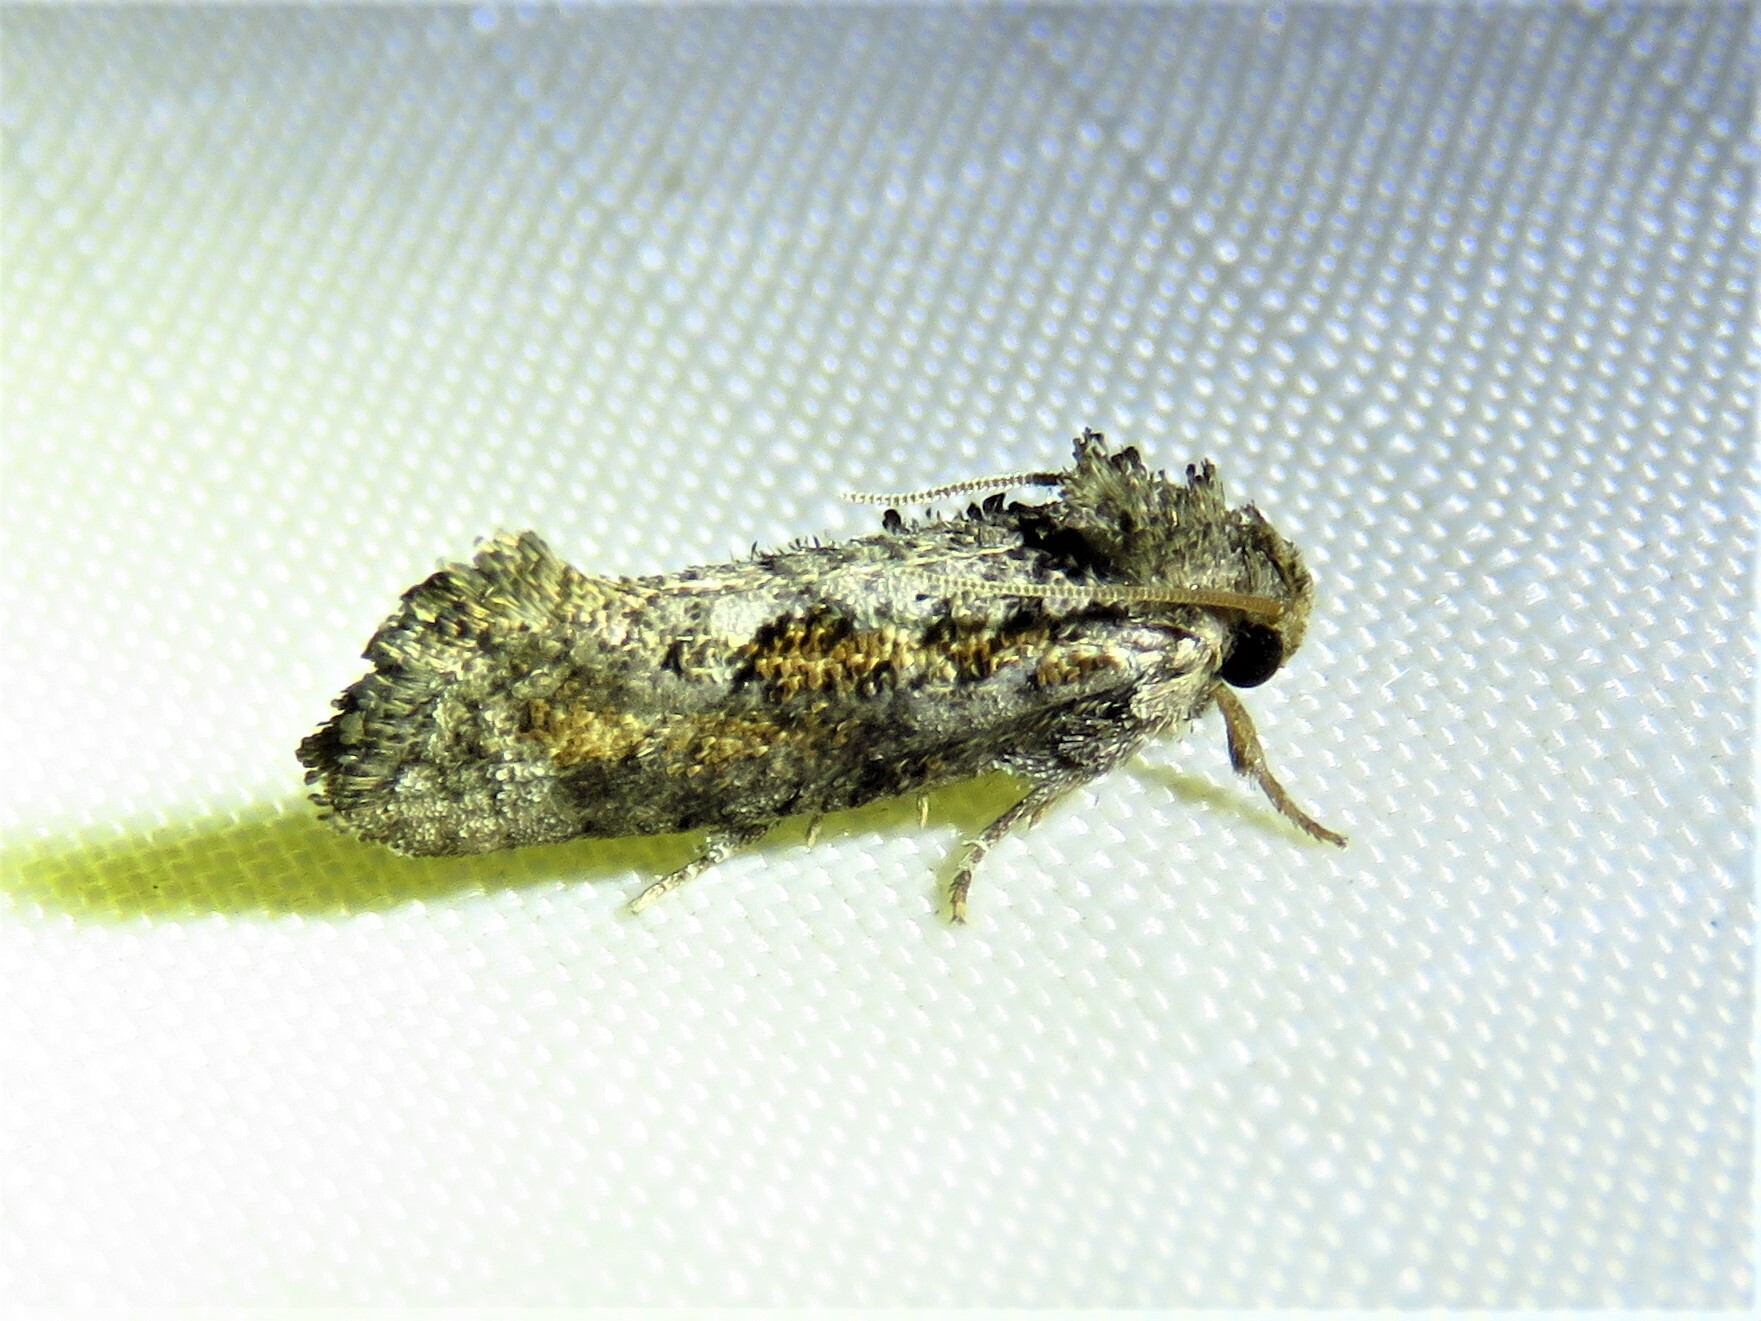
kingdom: Animalia
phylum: Arthropoda
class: Insecta
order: Lepidoptera
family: Tineidae
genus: Acrolophus
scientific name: Acrolophus piger
